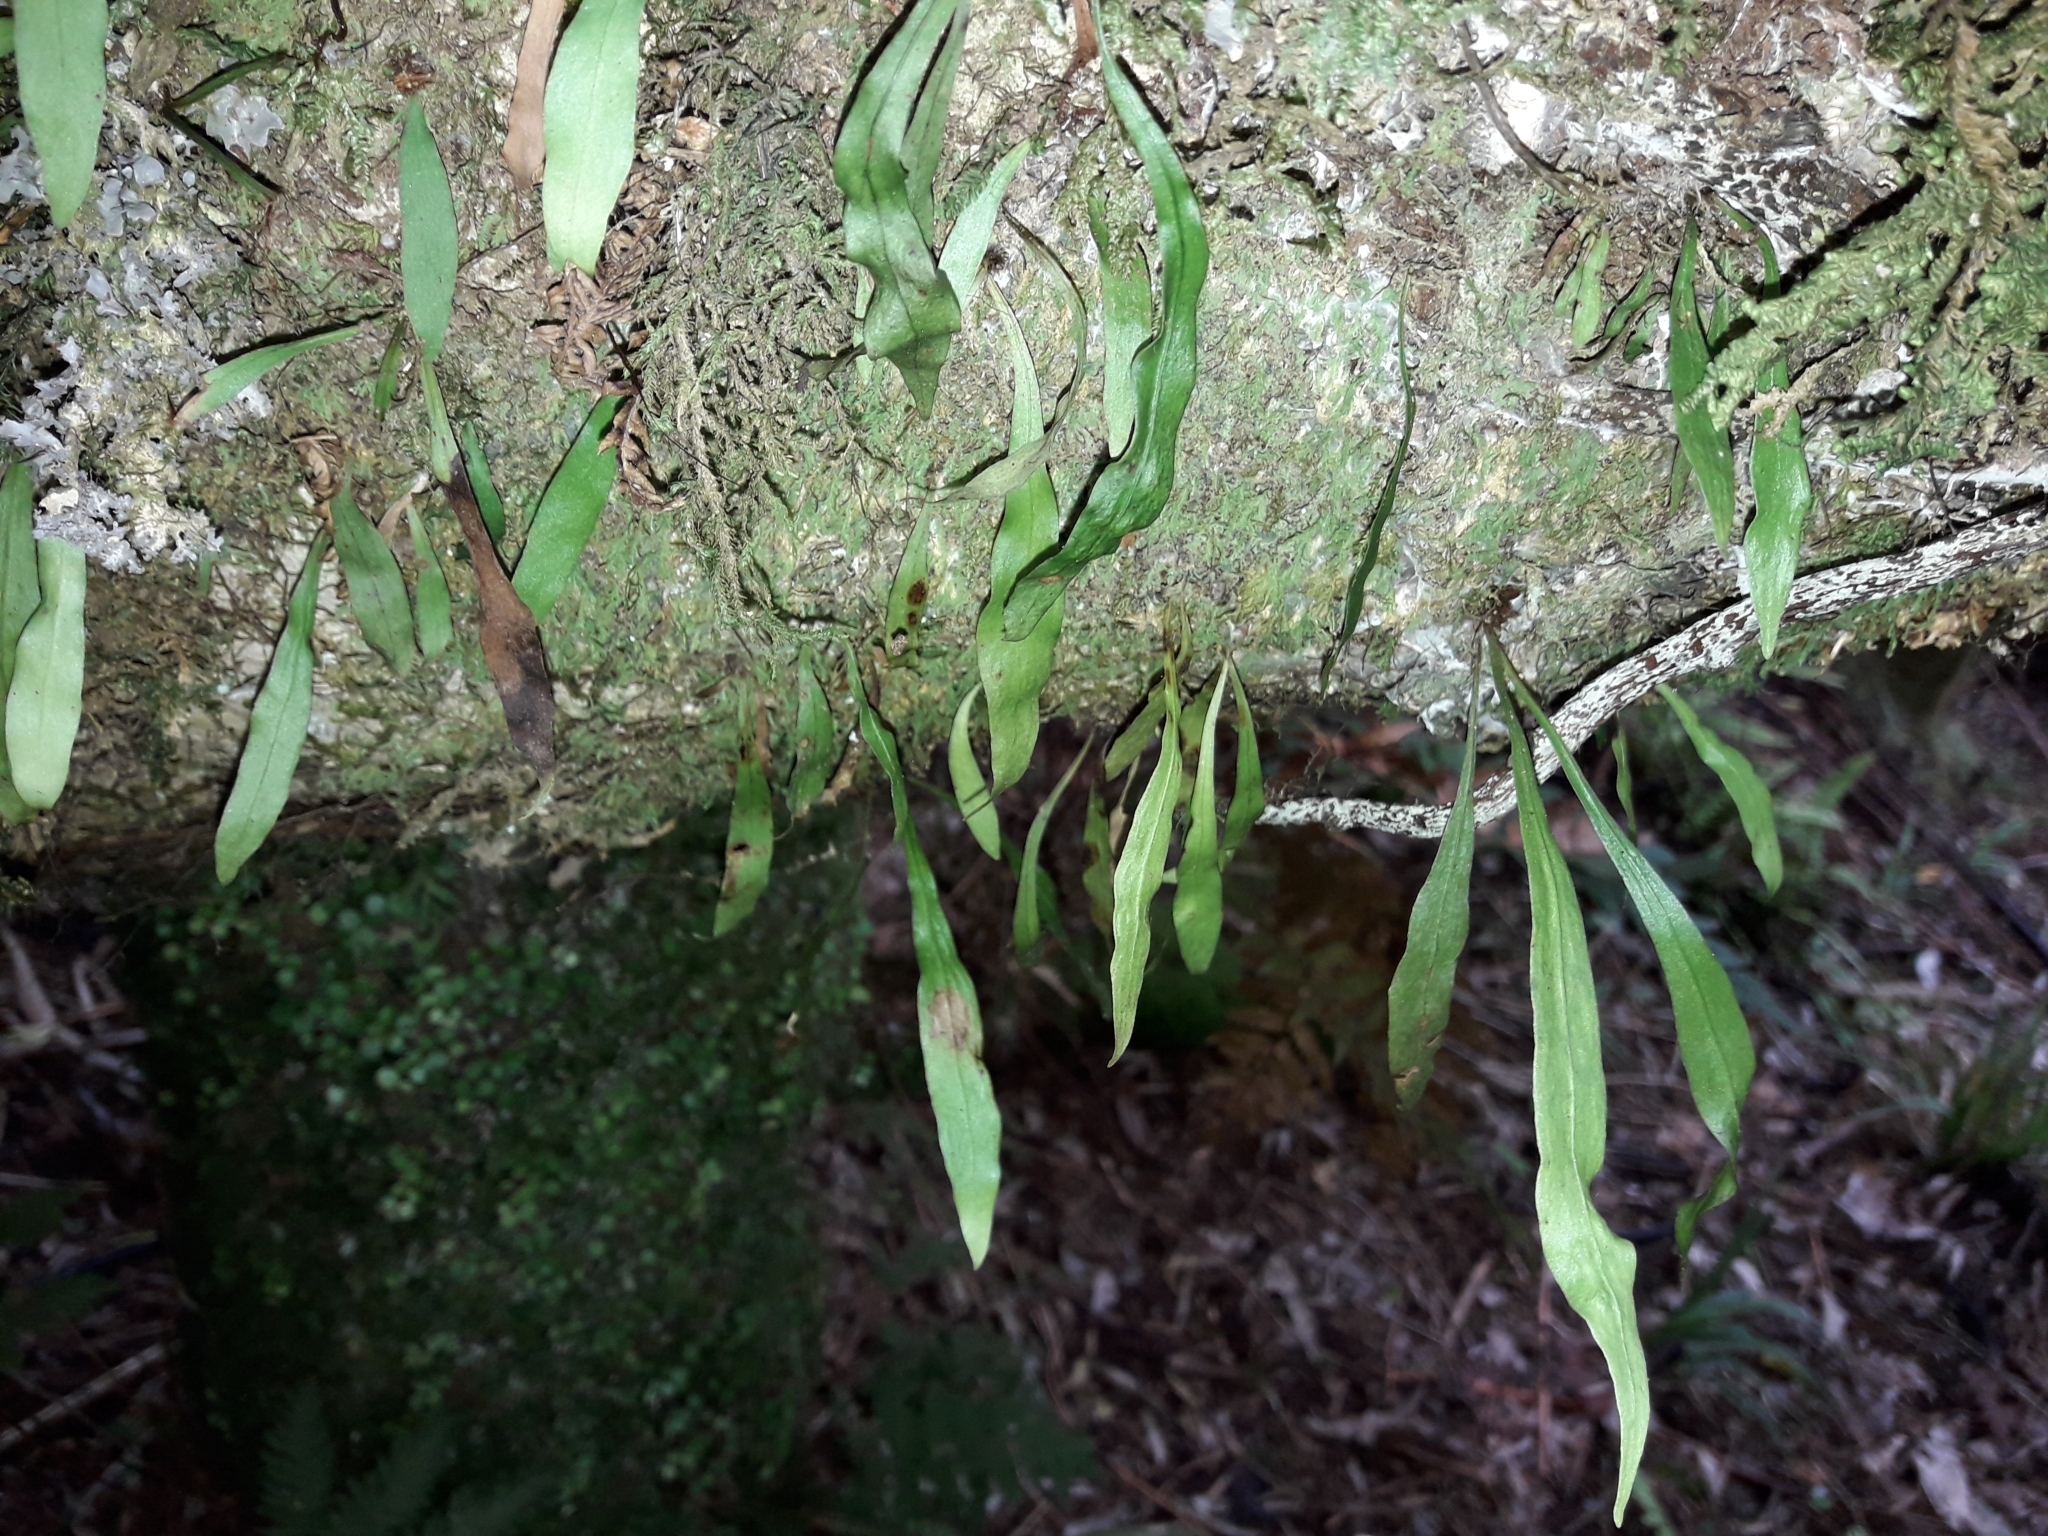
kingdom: Plantae
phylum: Tracheophyta
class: Polypodiopsida
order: Polypodiales
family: Polypodiaceae
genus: Loxogramme
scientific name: Loxogramme dictyopteris
